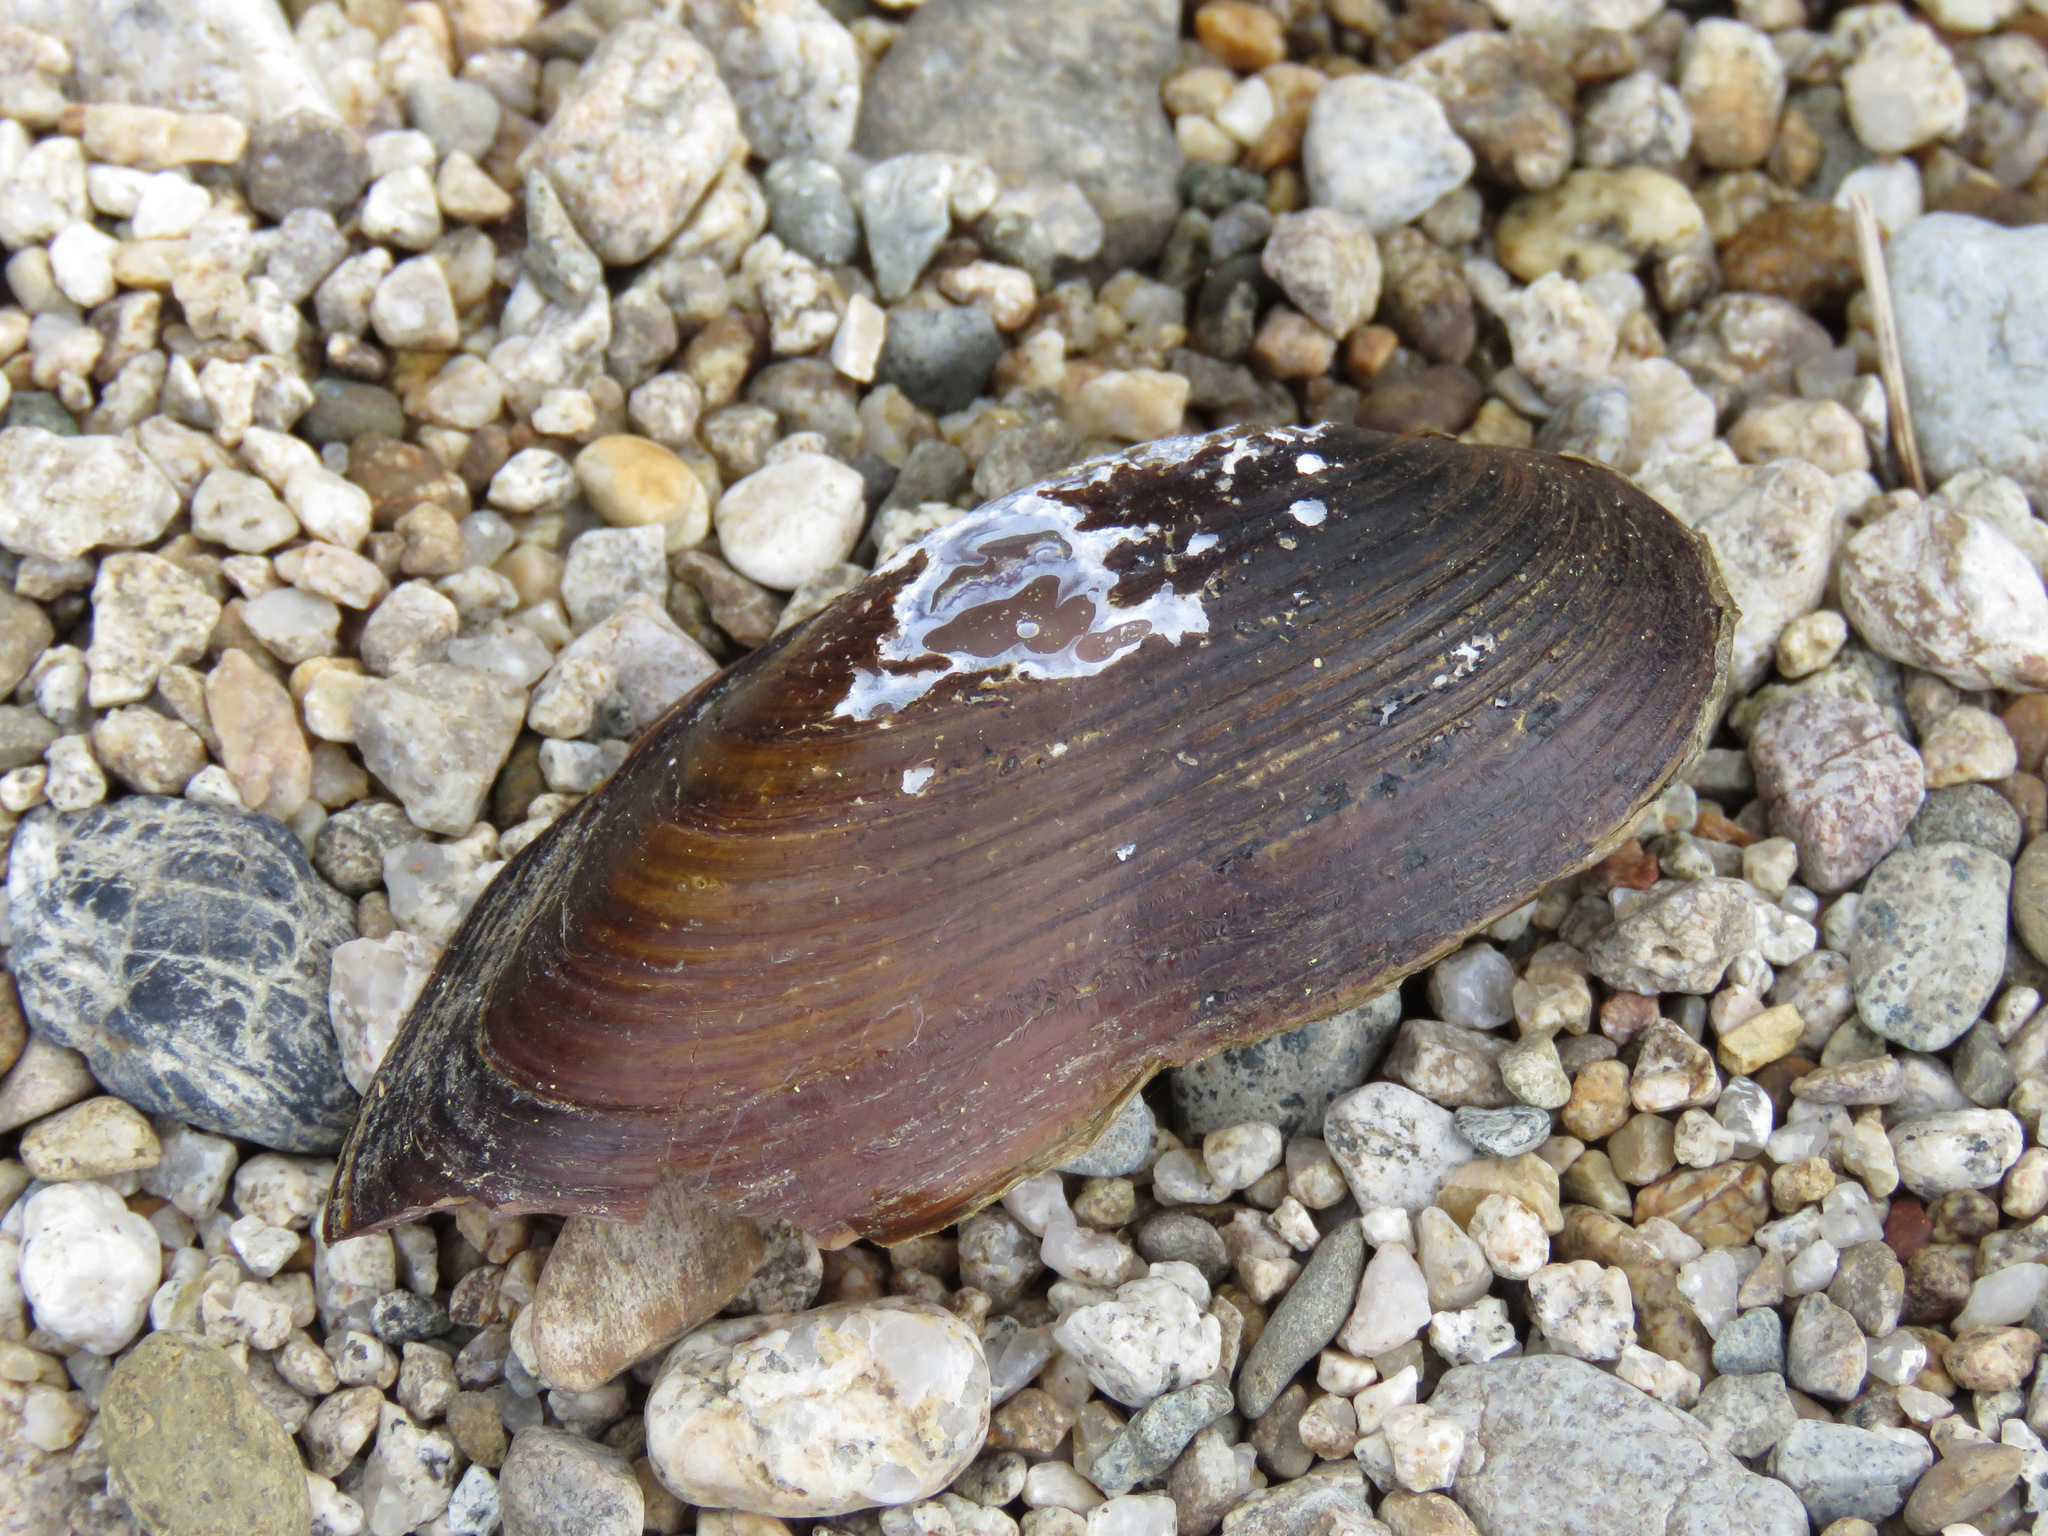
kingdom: Animalia
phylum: Mollusca
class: Bivalvia
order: Unionida
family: Margaritiferidae
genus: Margaritifera
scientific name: Margaritifera falcata
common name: Western pearlshell
